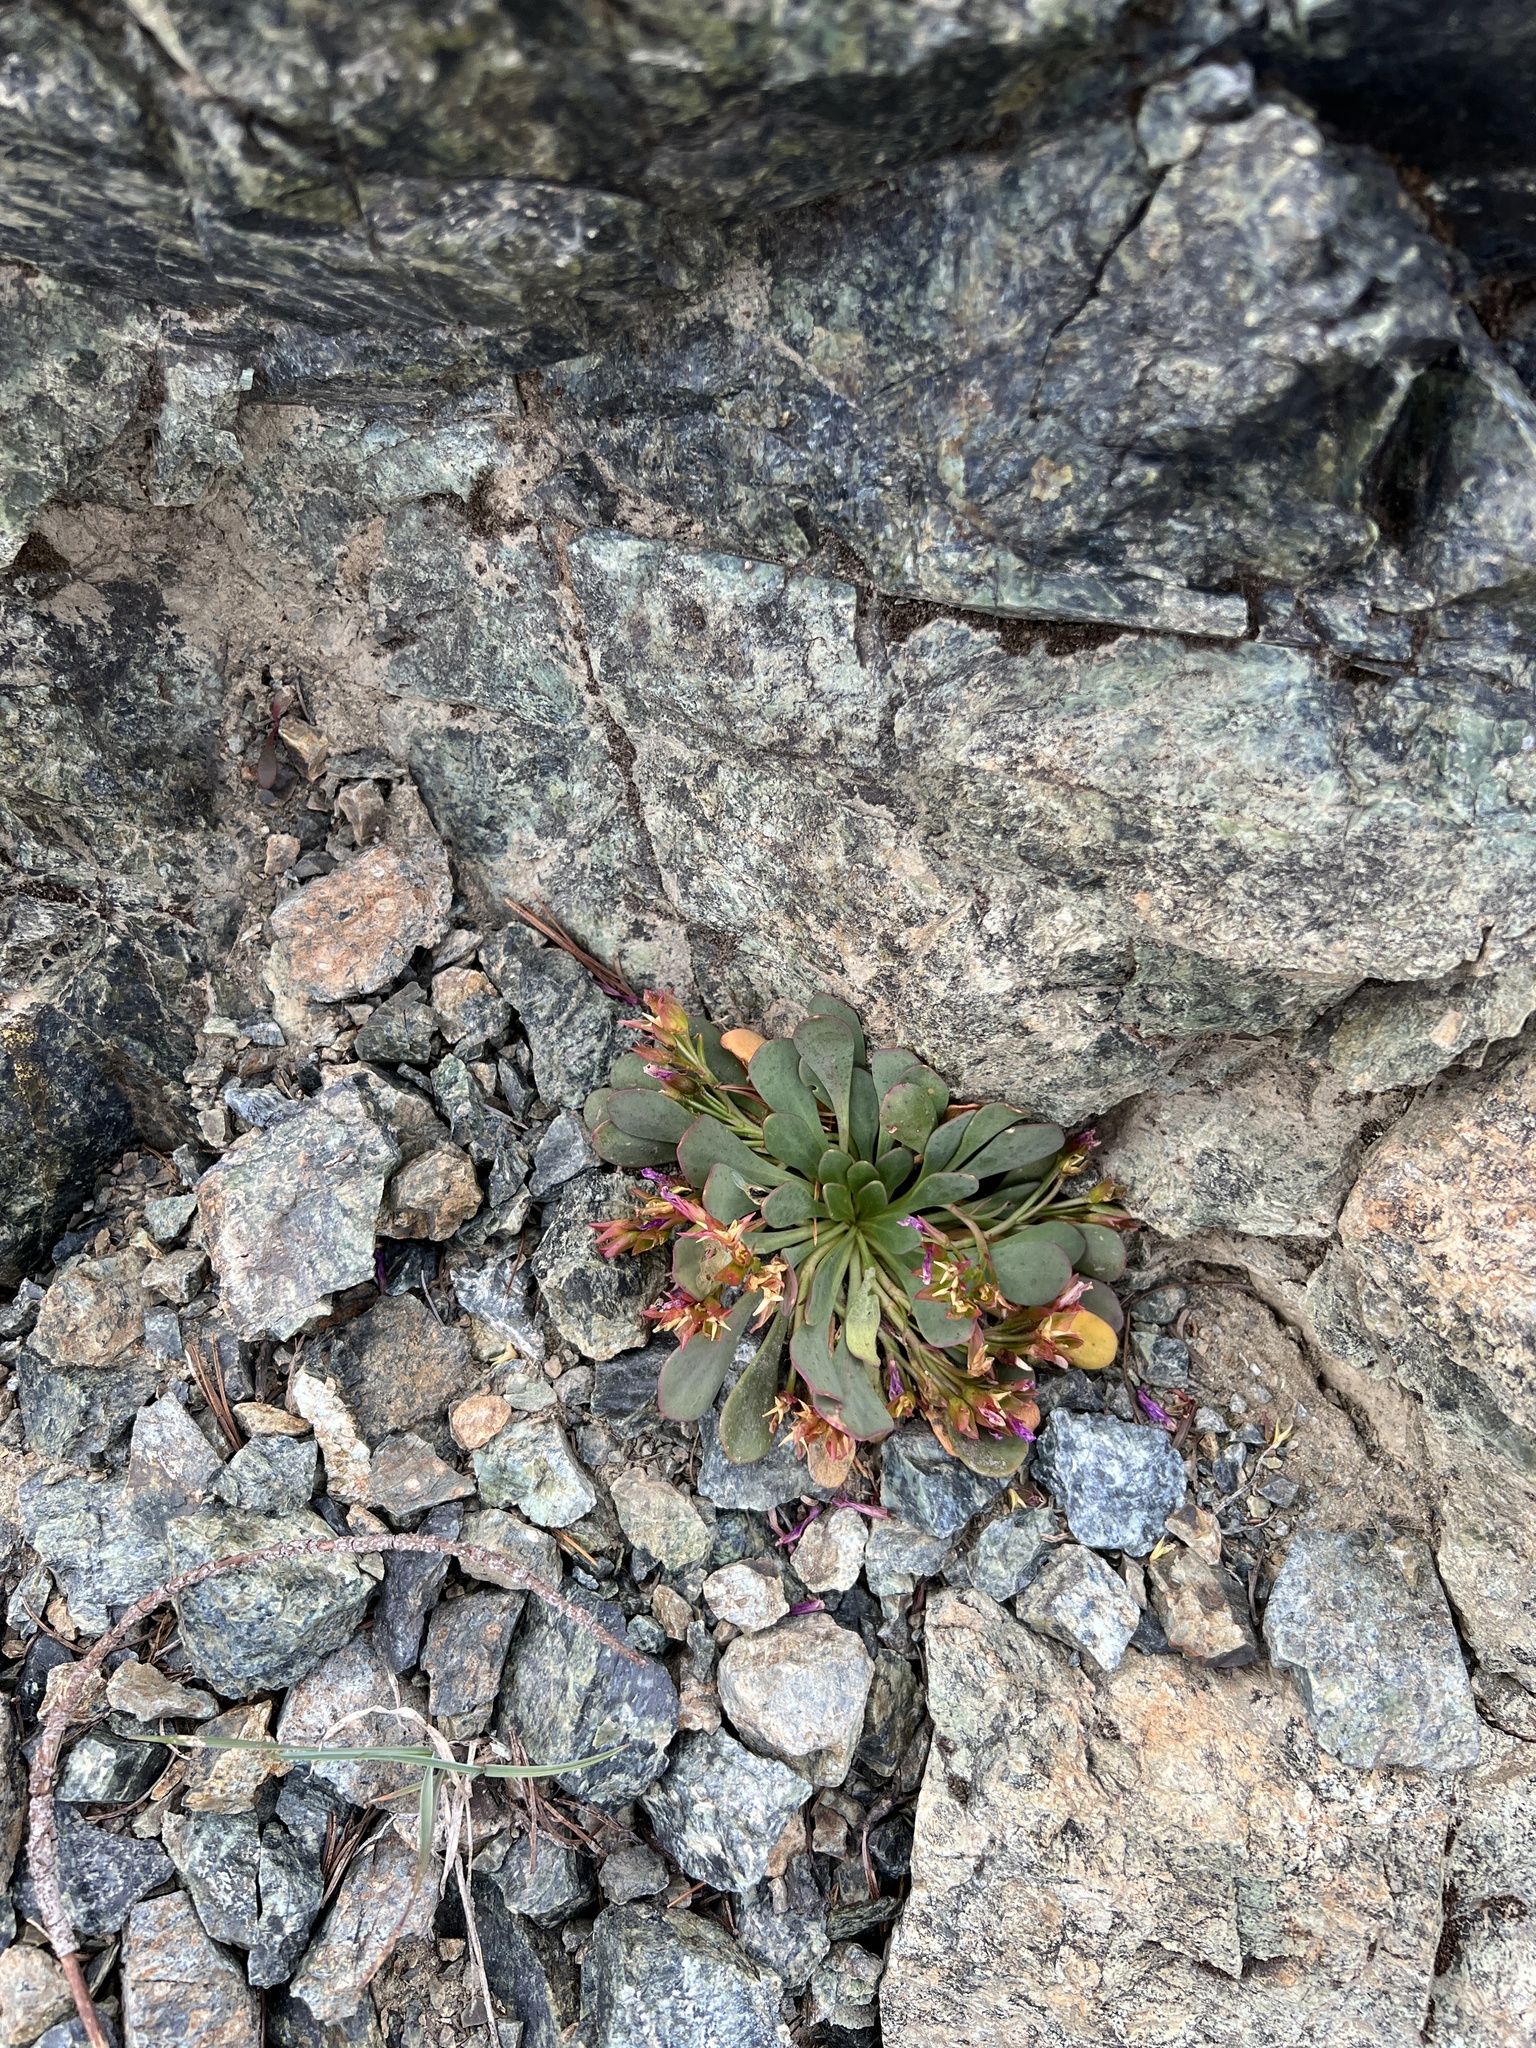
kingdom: Plantae
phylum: Tracheophyta
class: Magnoliopsida
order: Caryophyllales
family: Montiaceae
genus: Claytonia
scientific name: Claytonia megarhiza
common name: Alpine spring beauty
